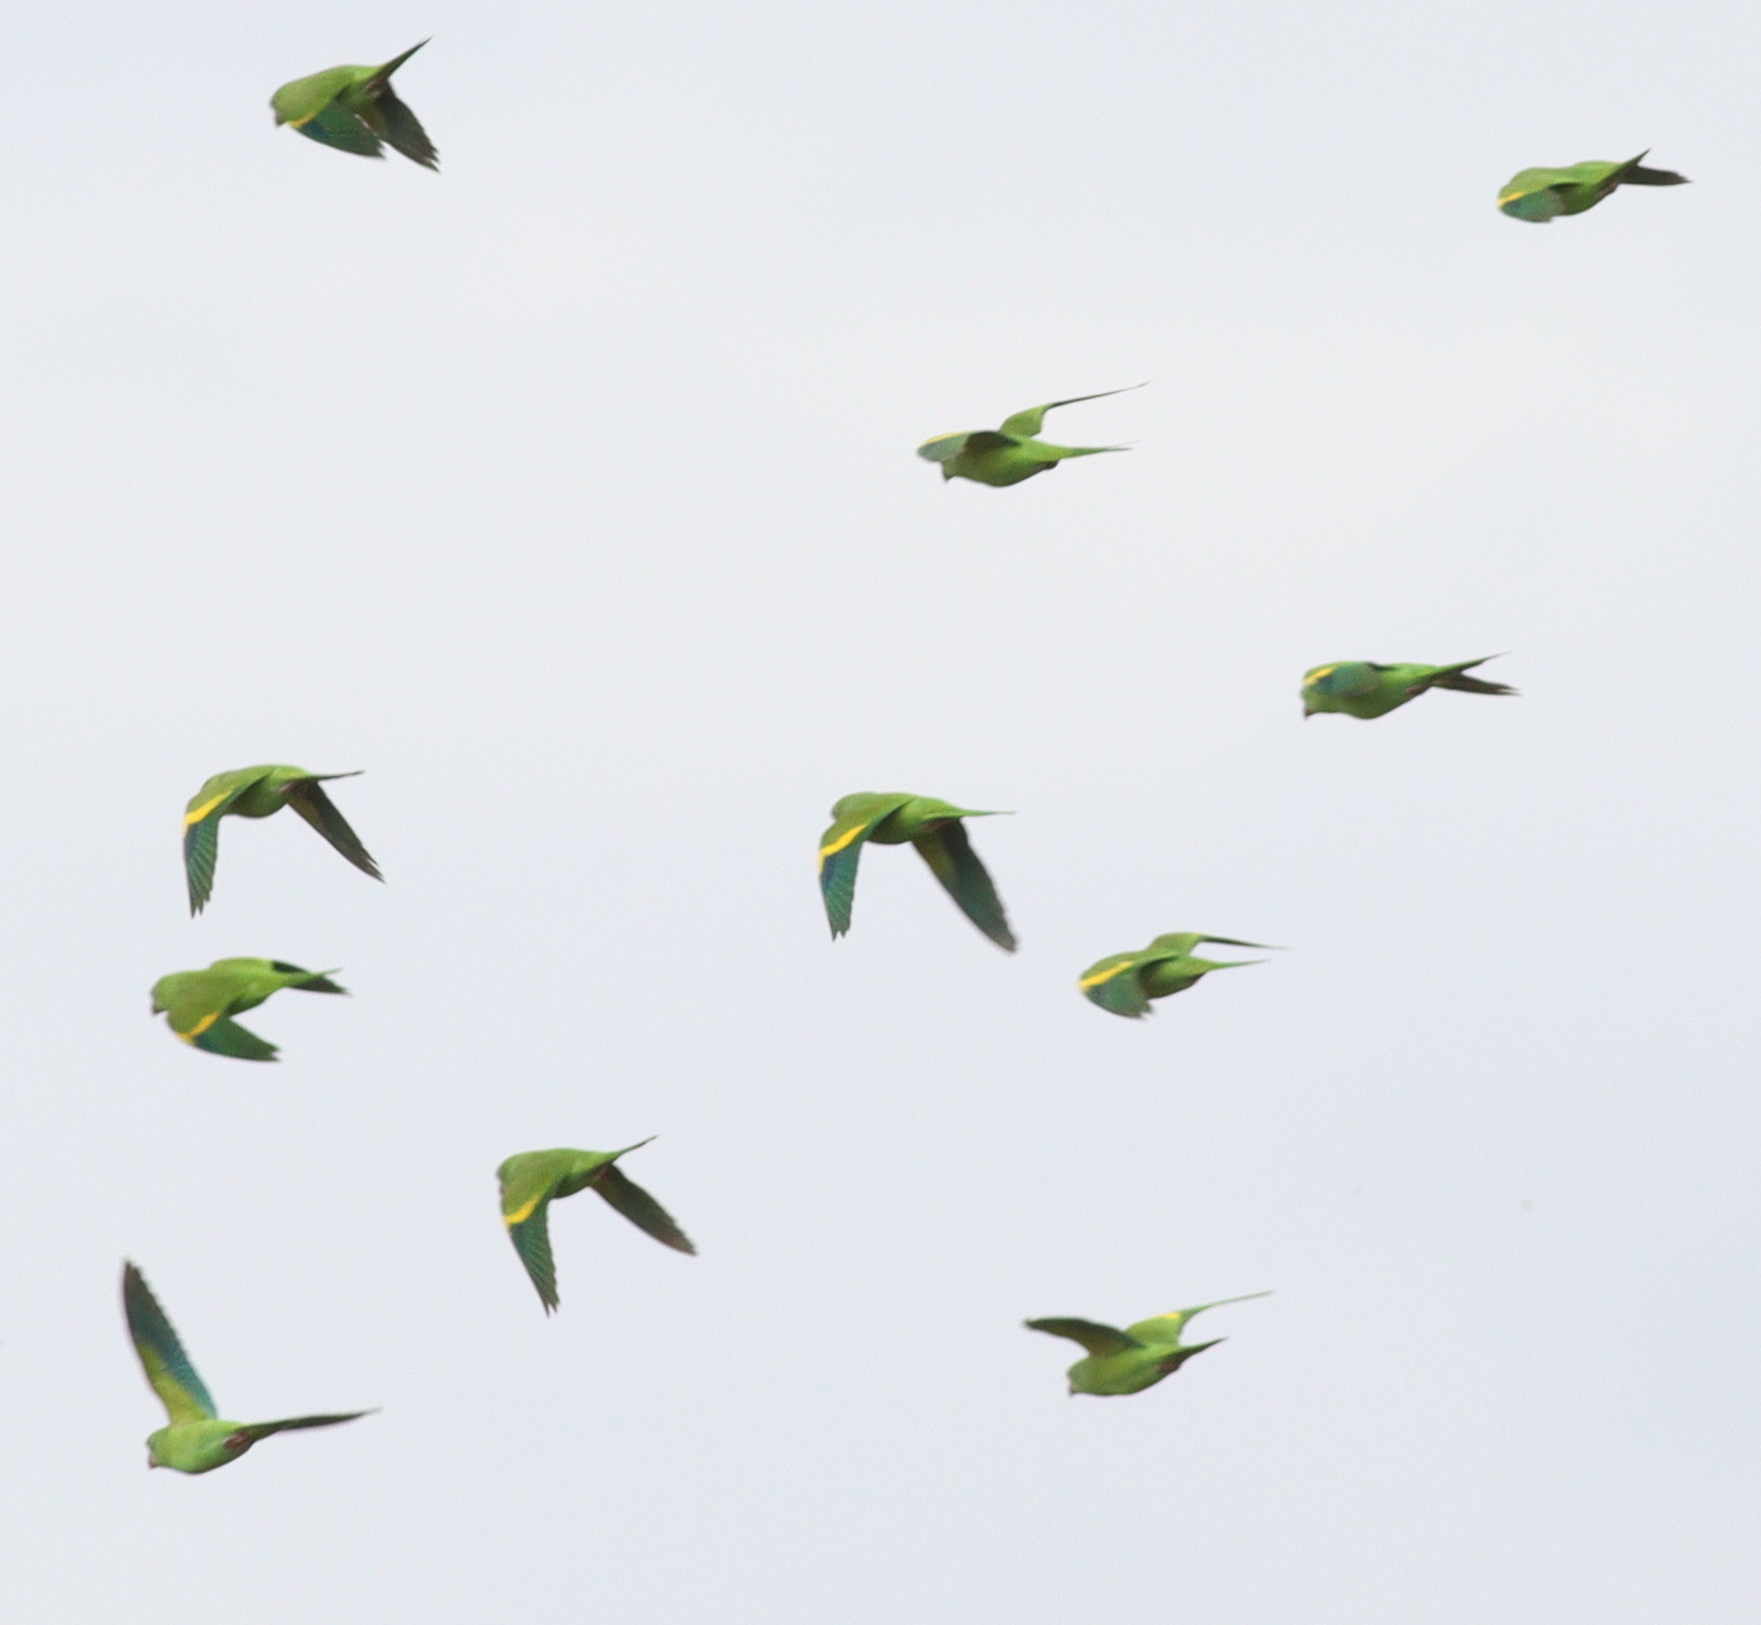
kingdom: Animalia
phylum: Chordata
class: Aves
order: Psittaciformes
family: Psittacidae
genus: Brotogeris
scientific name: Brotogeris chiriri
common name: Yellow-chevroned parakeet
